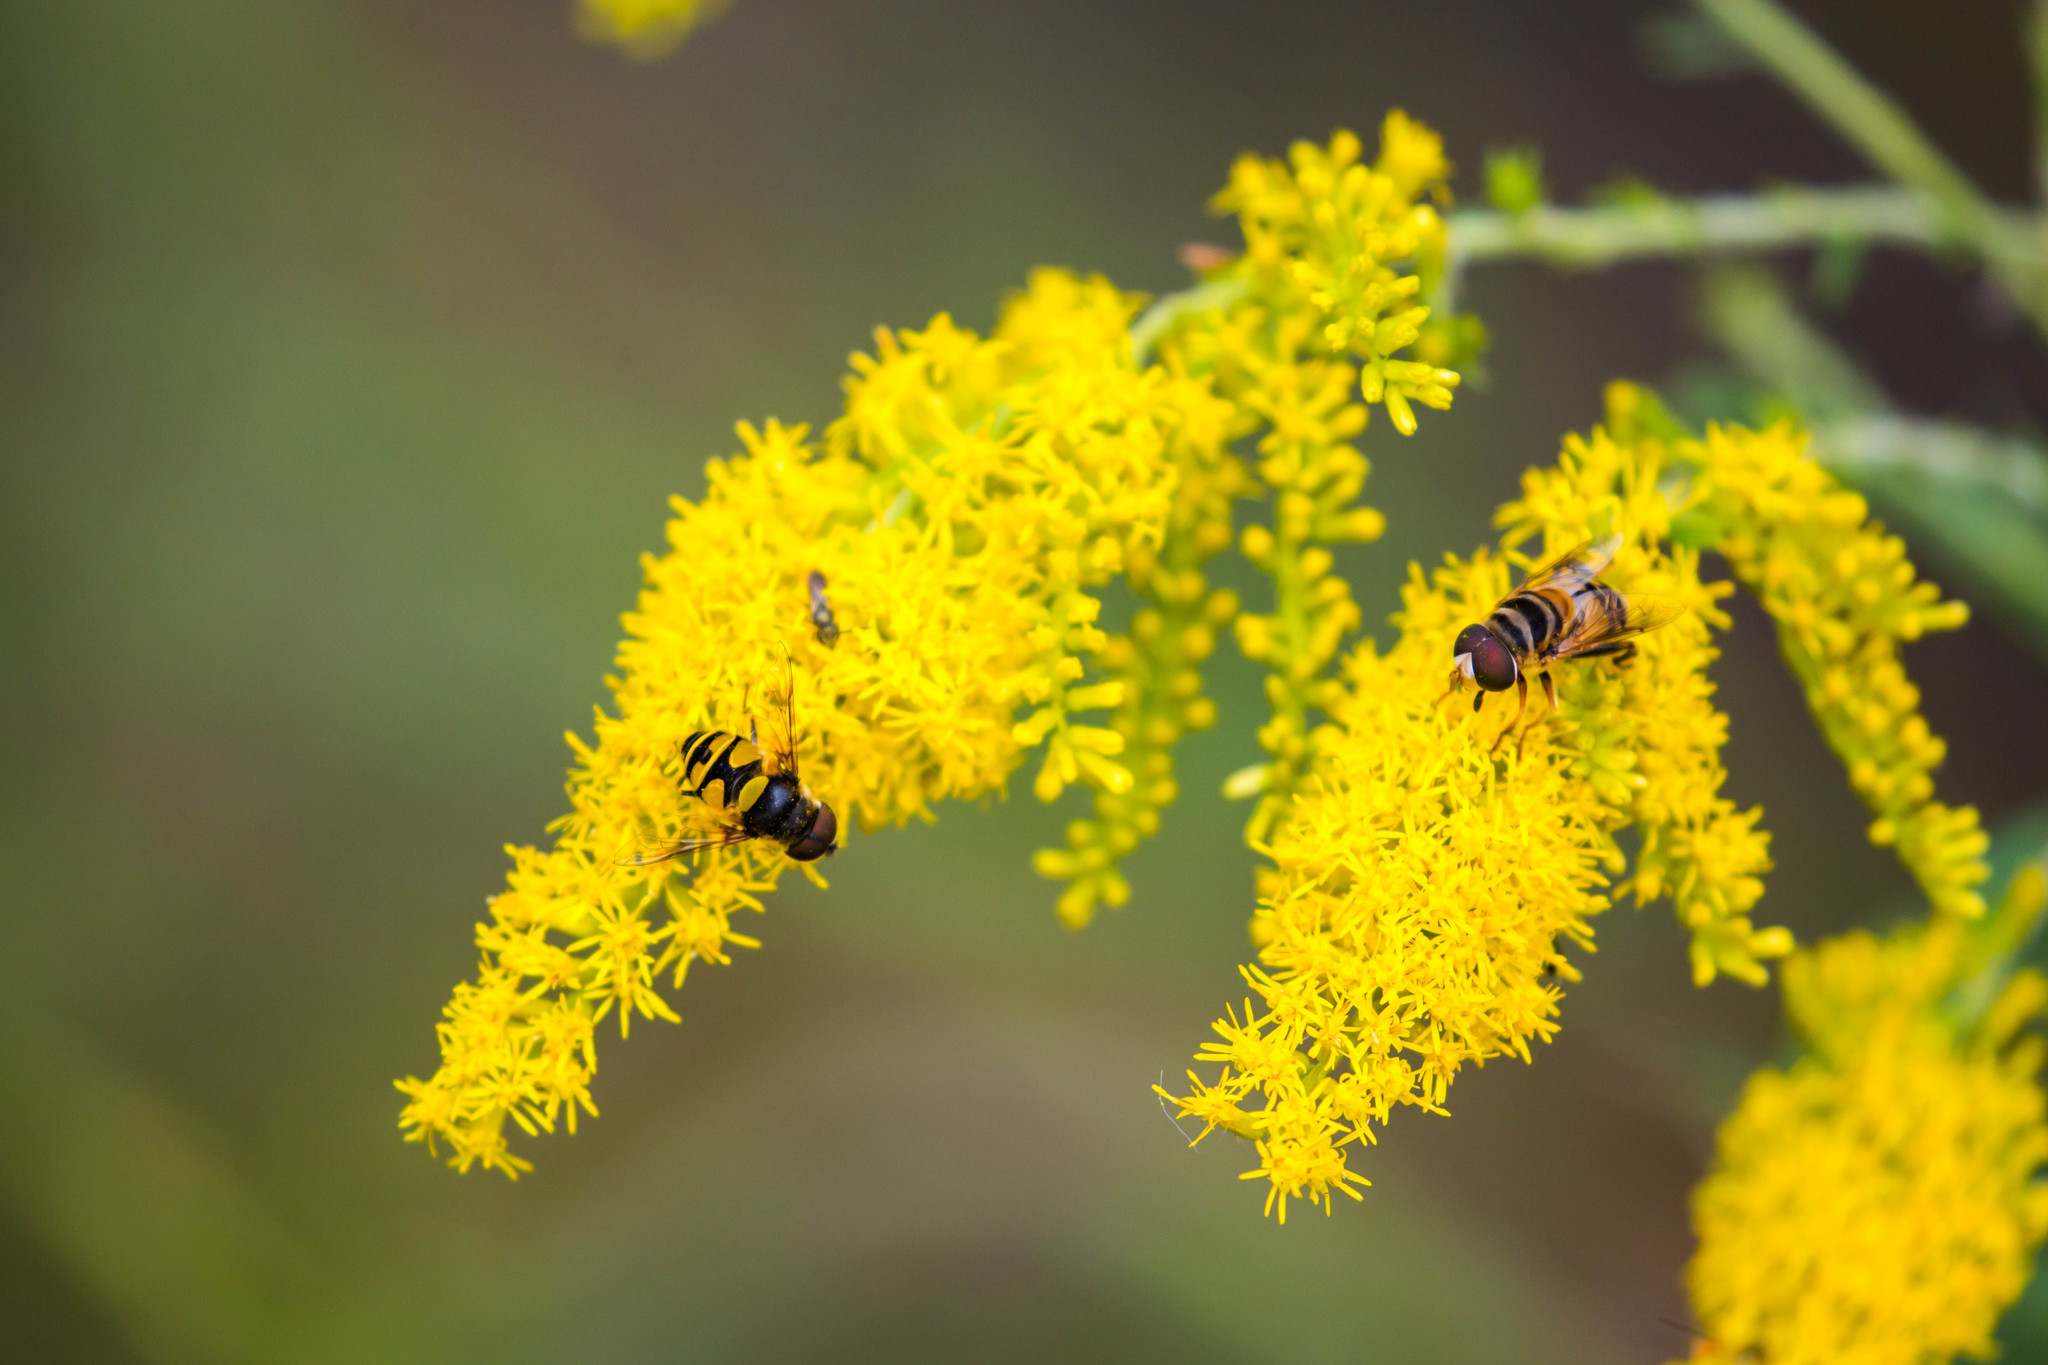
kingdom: Animalia
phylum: Arthropoda
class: Insecta
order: Diptera
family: Syrphidae
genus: Eristalis
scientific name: Eristalis transversa
